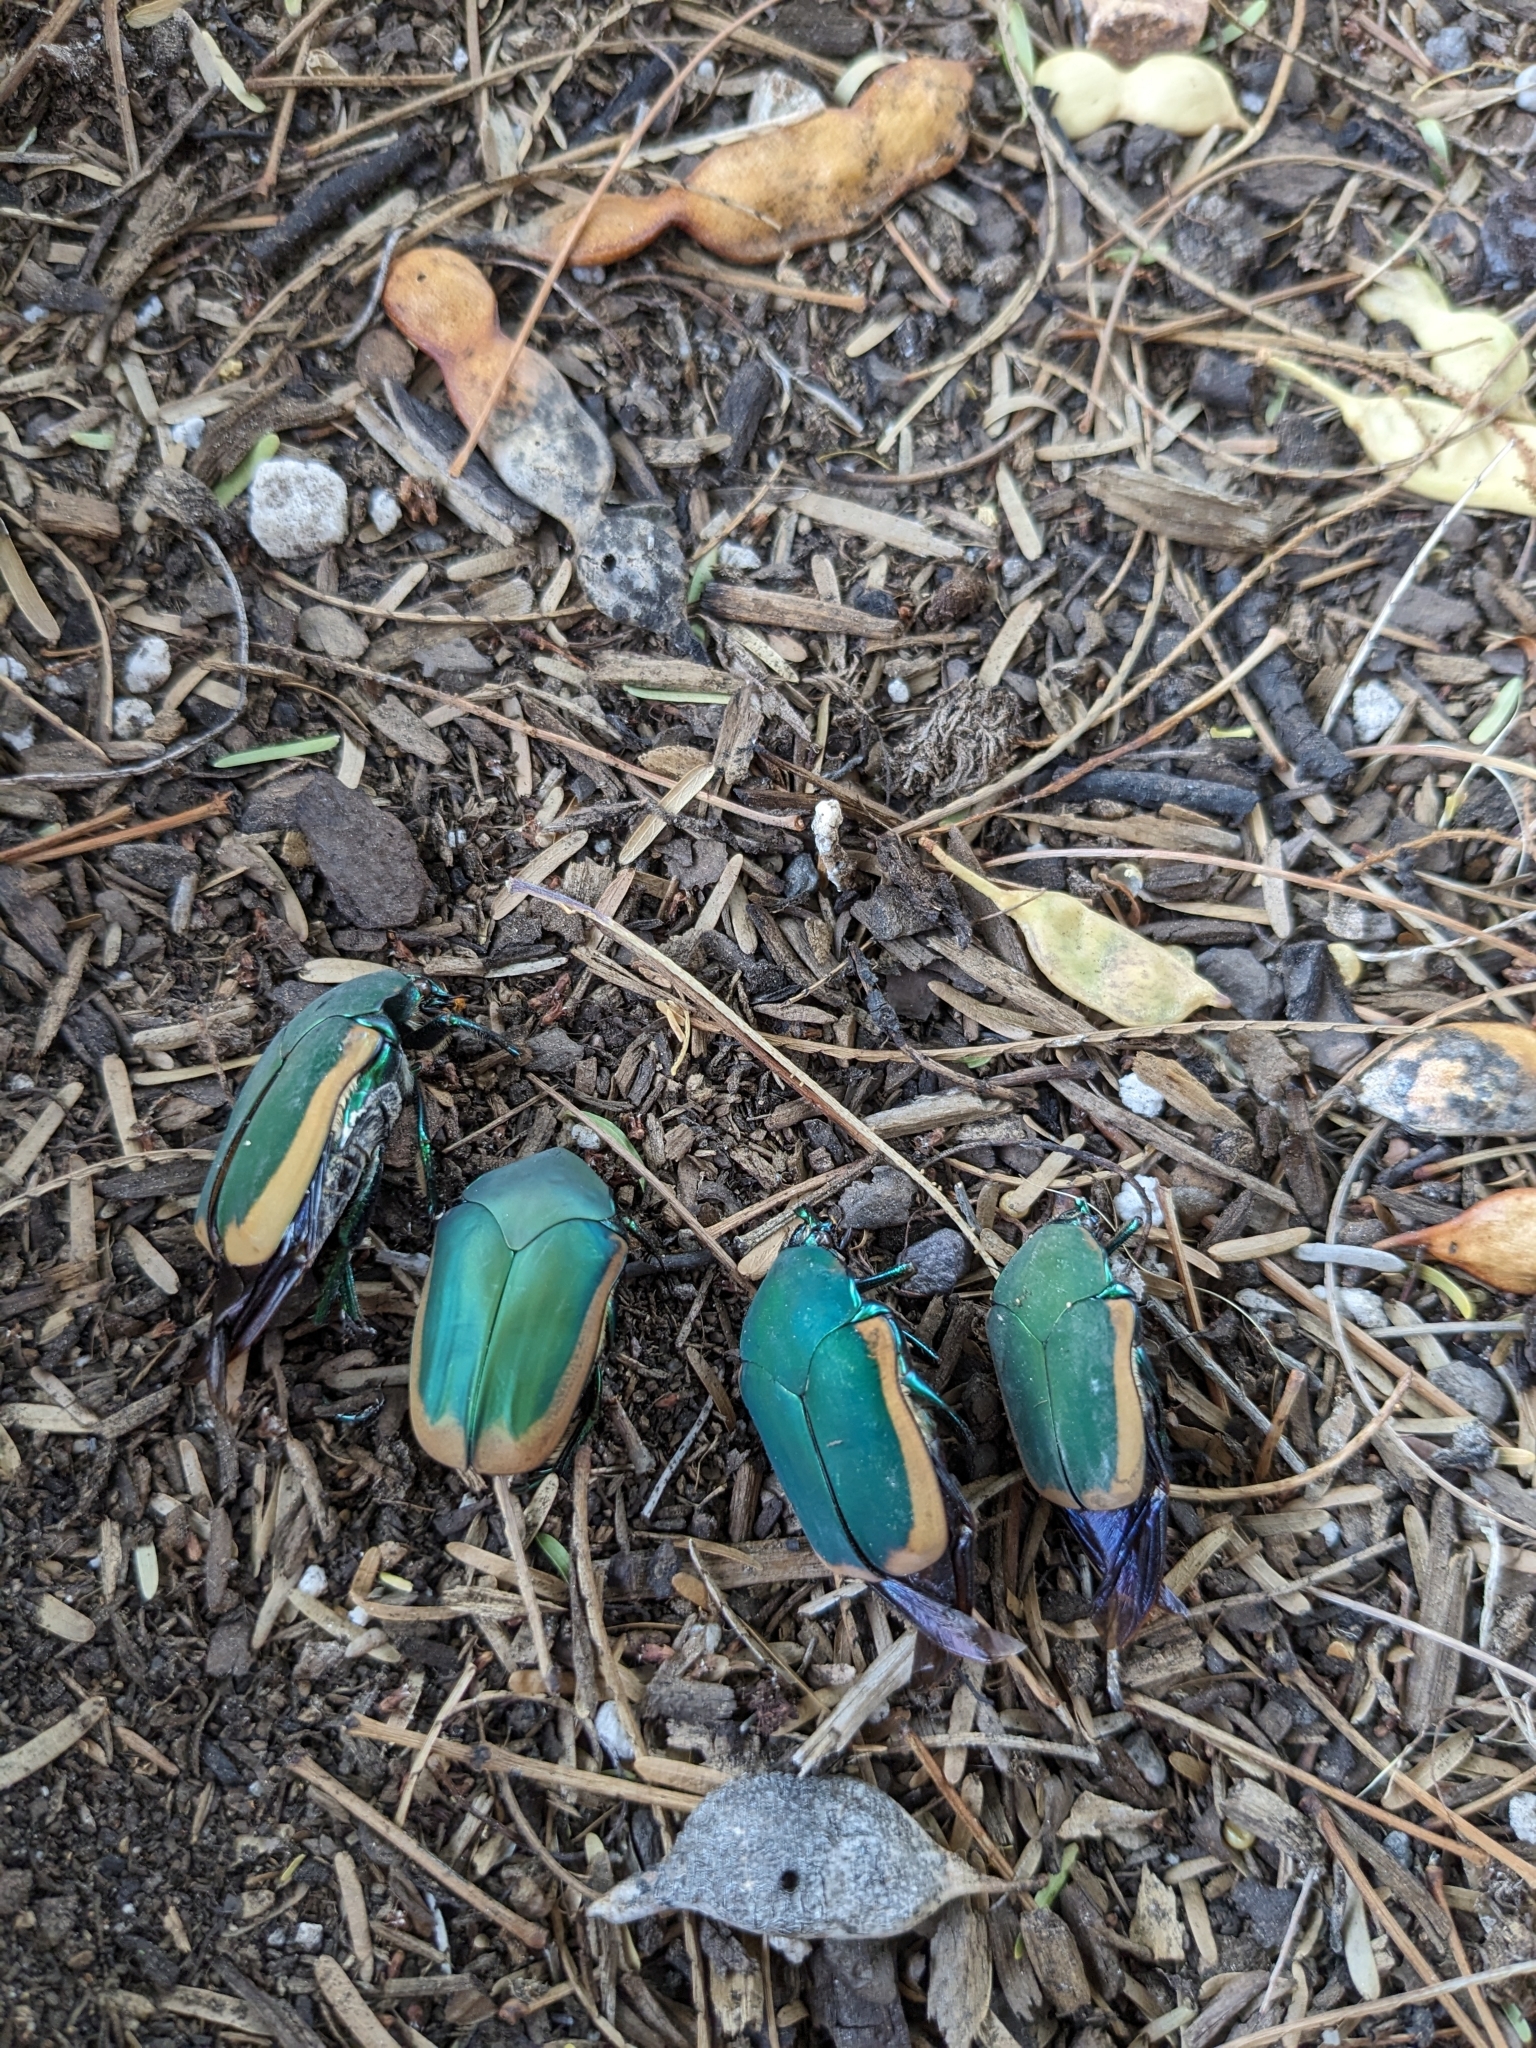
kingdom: Animalia
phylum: Arthropoda
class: Insecta
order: Coleoptera
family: Scarabaeidae
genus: Cotinis
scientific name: Cotinis mutabilis
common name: Figeater beetle
